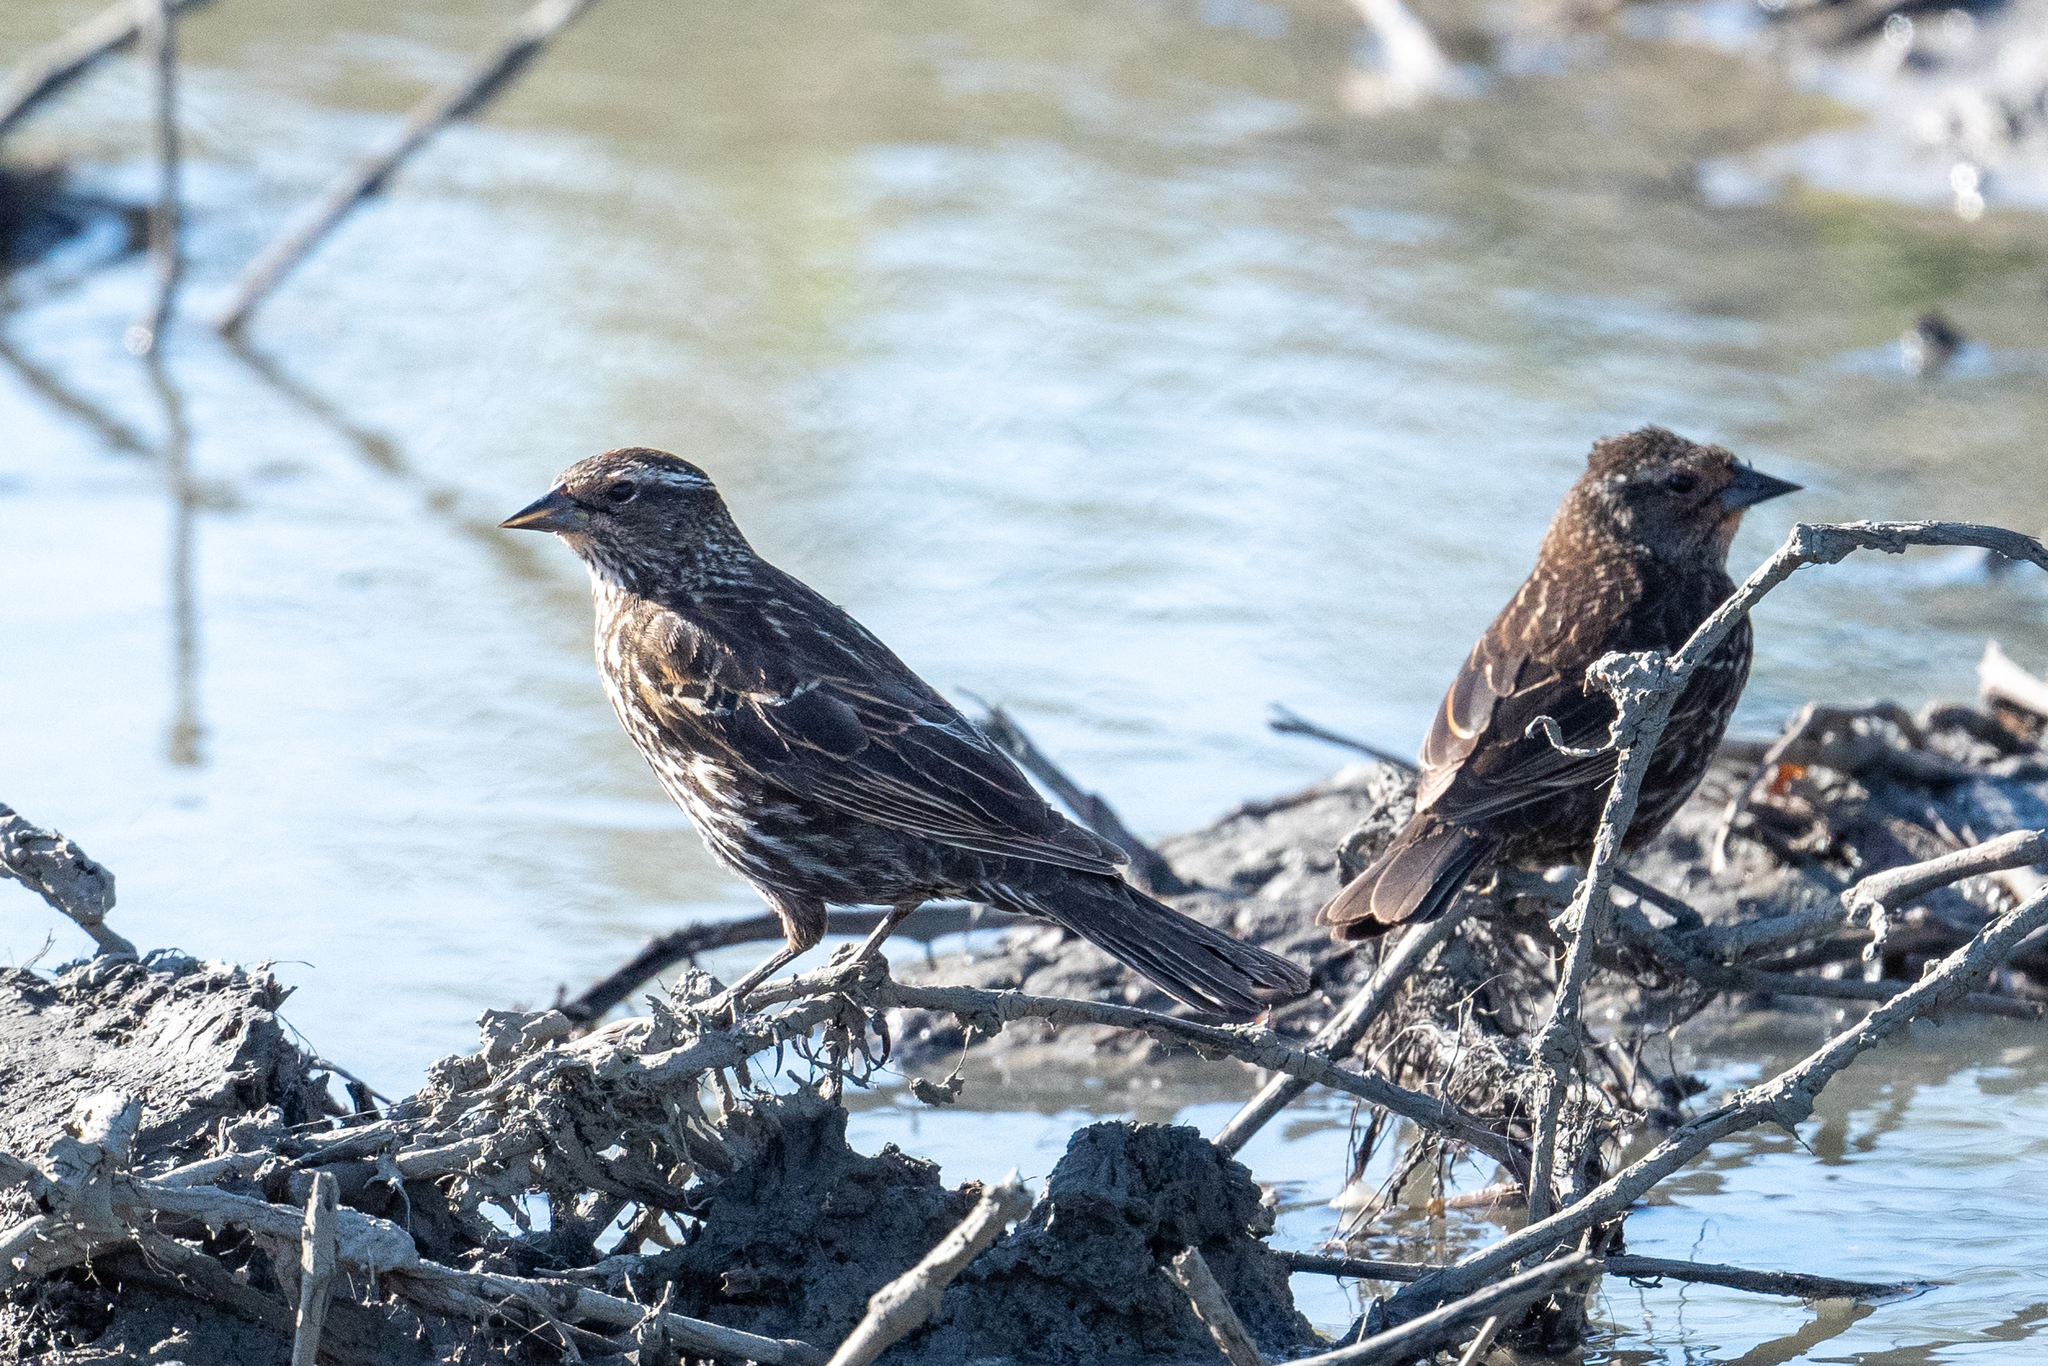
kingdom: Animalia
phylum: Chordata
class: Aves
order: Passeriformes
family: Icteridae
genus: Agelaius
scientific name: Agelaius phoeniceus
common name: Red-winged blackbird
